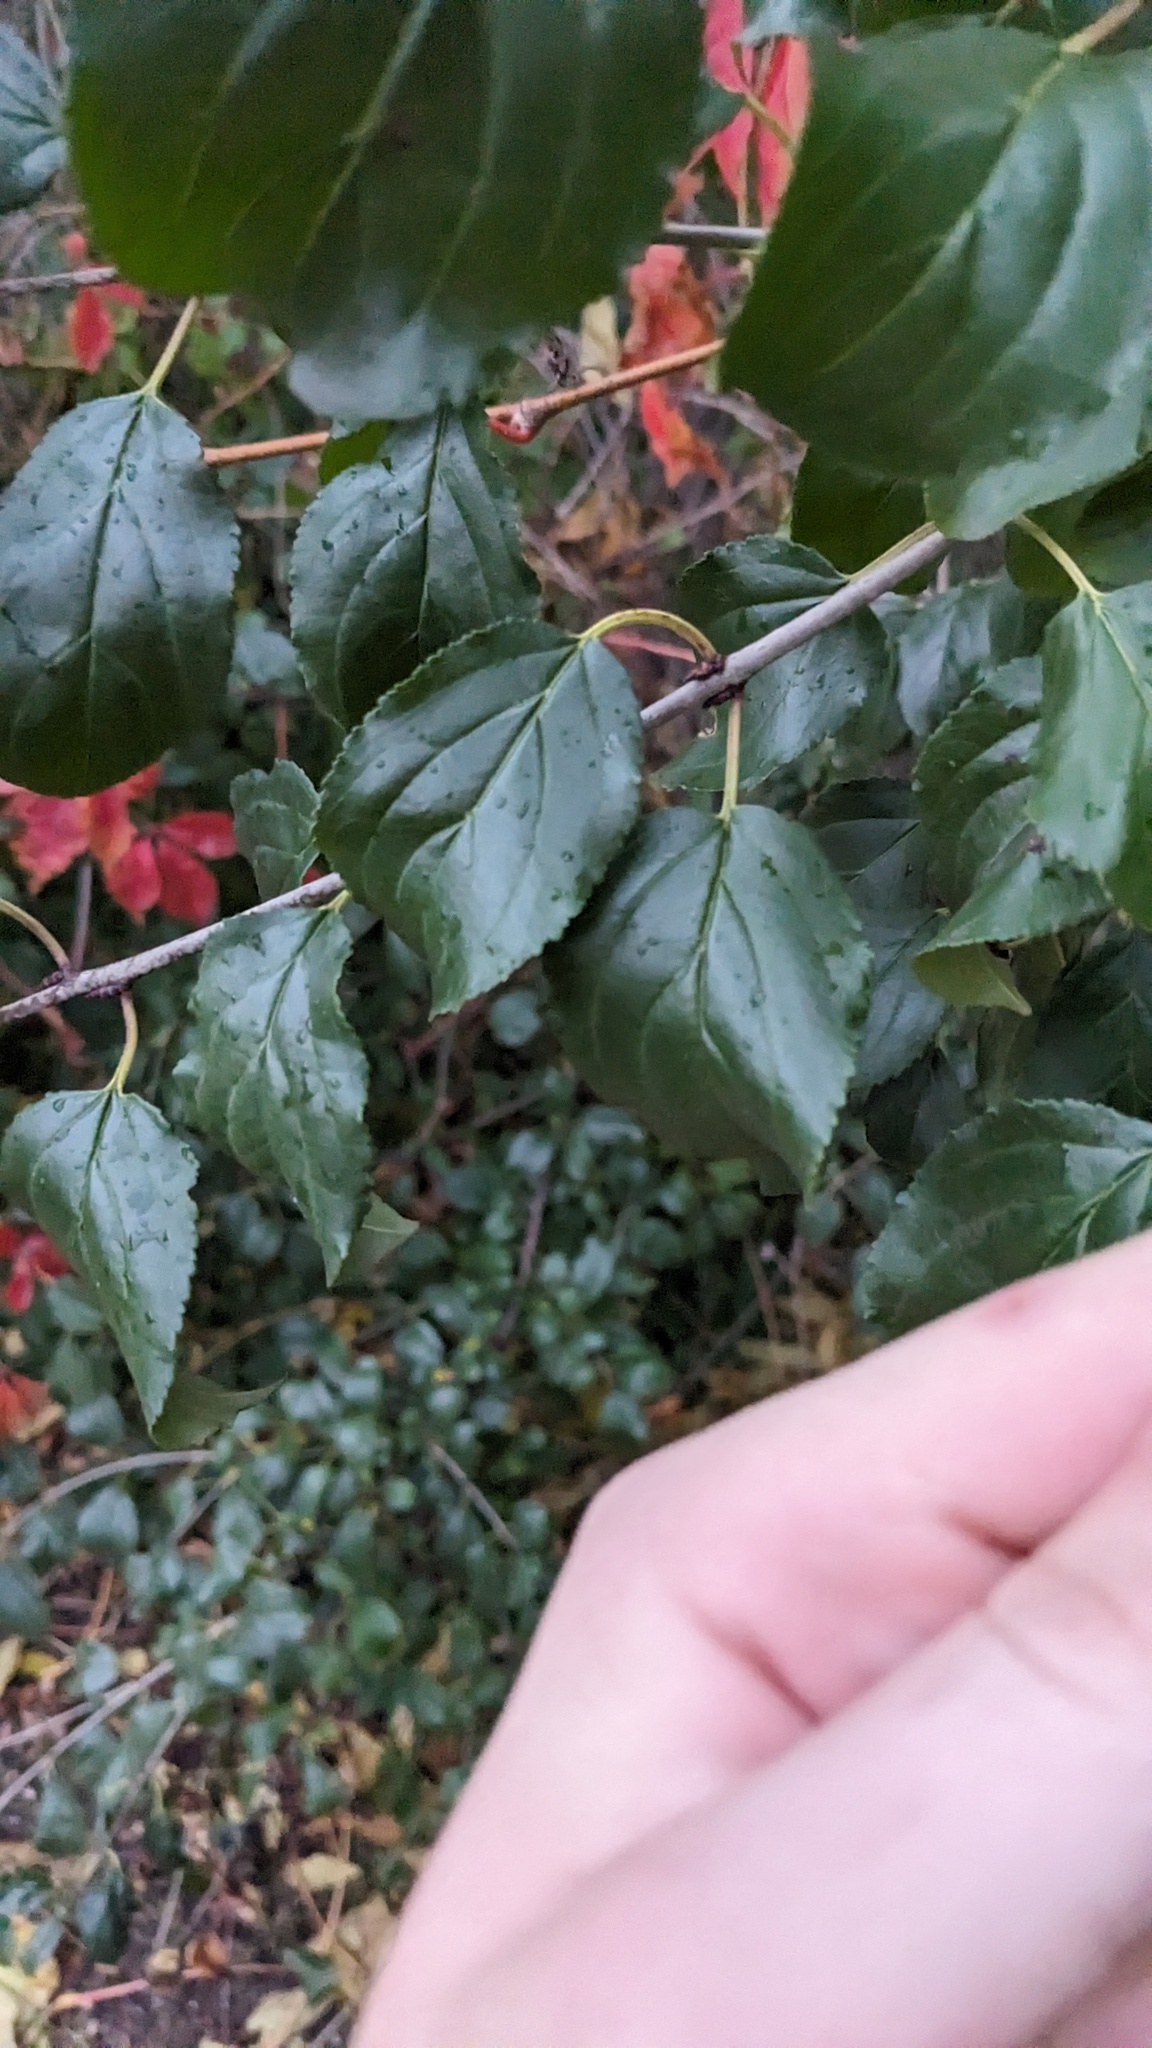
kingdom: Plantae
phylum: Tracheophyta
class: Magnoliopsida
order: Rosales
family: Rhamnaceae
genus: Rhamnus
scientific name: Rhamnus cathartica
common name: Common buckthorn
